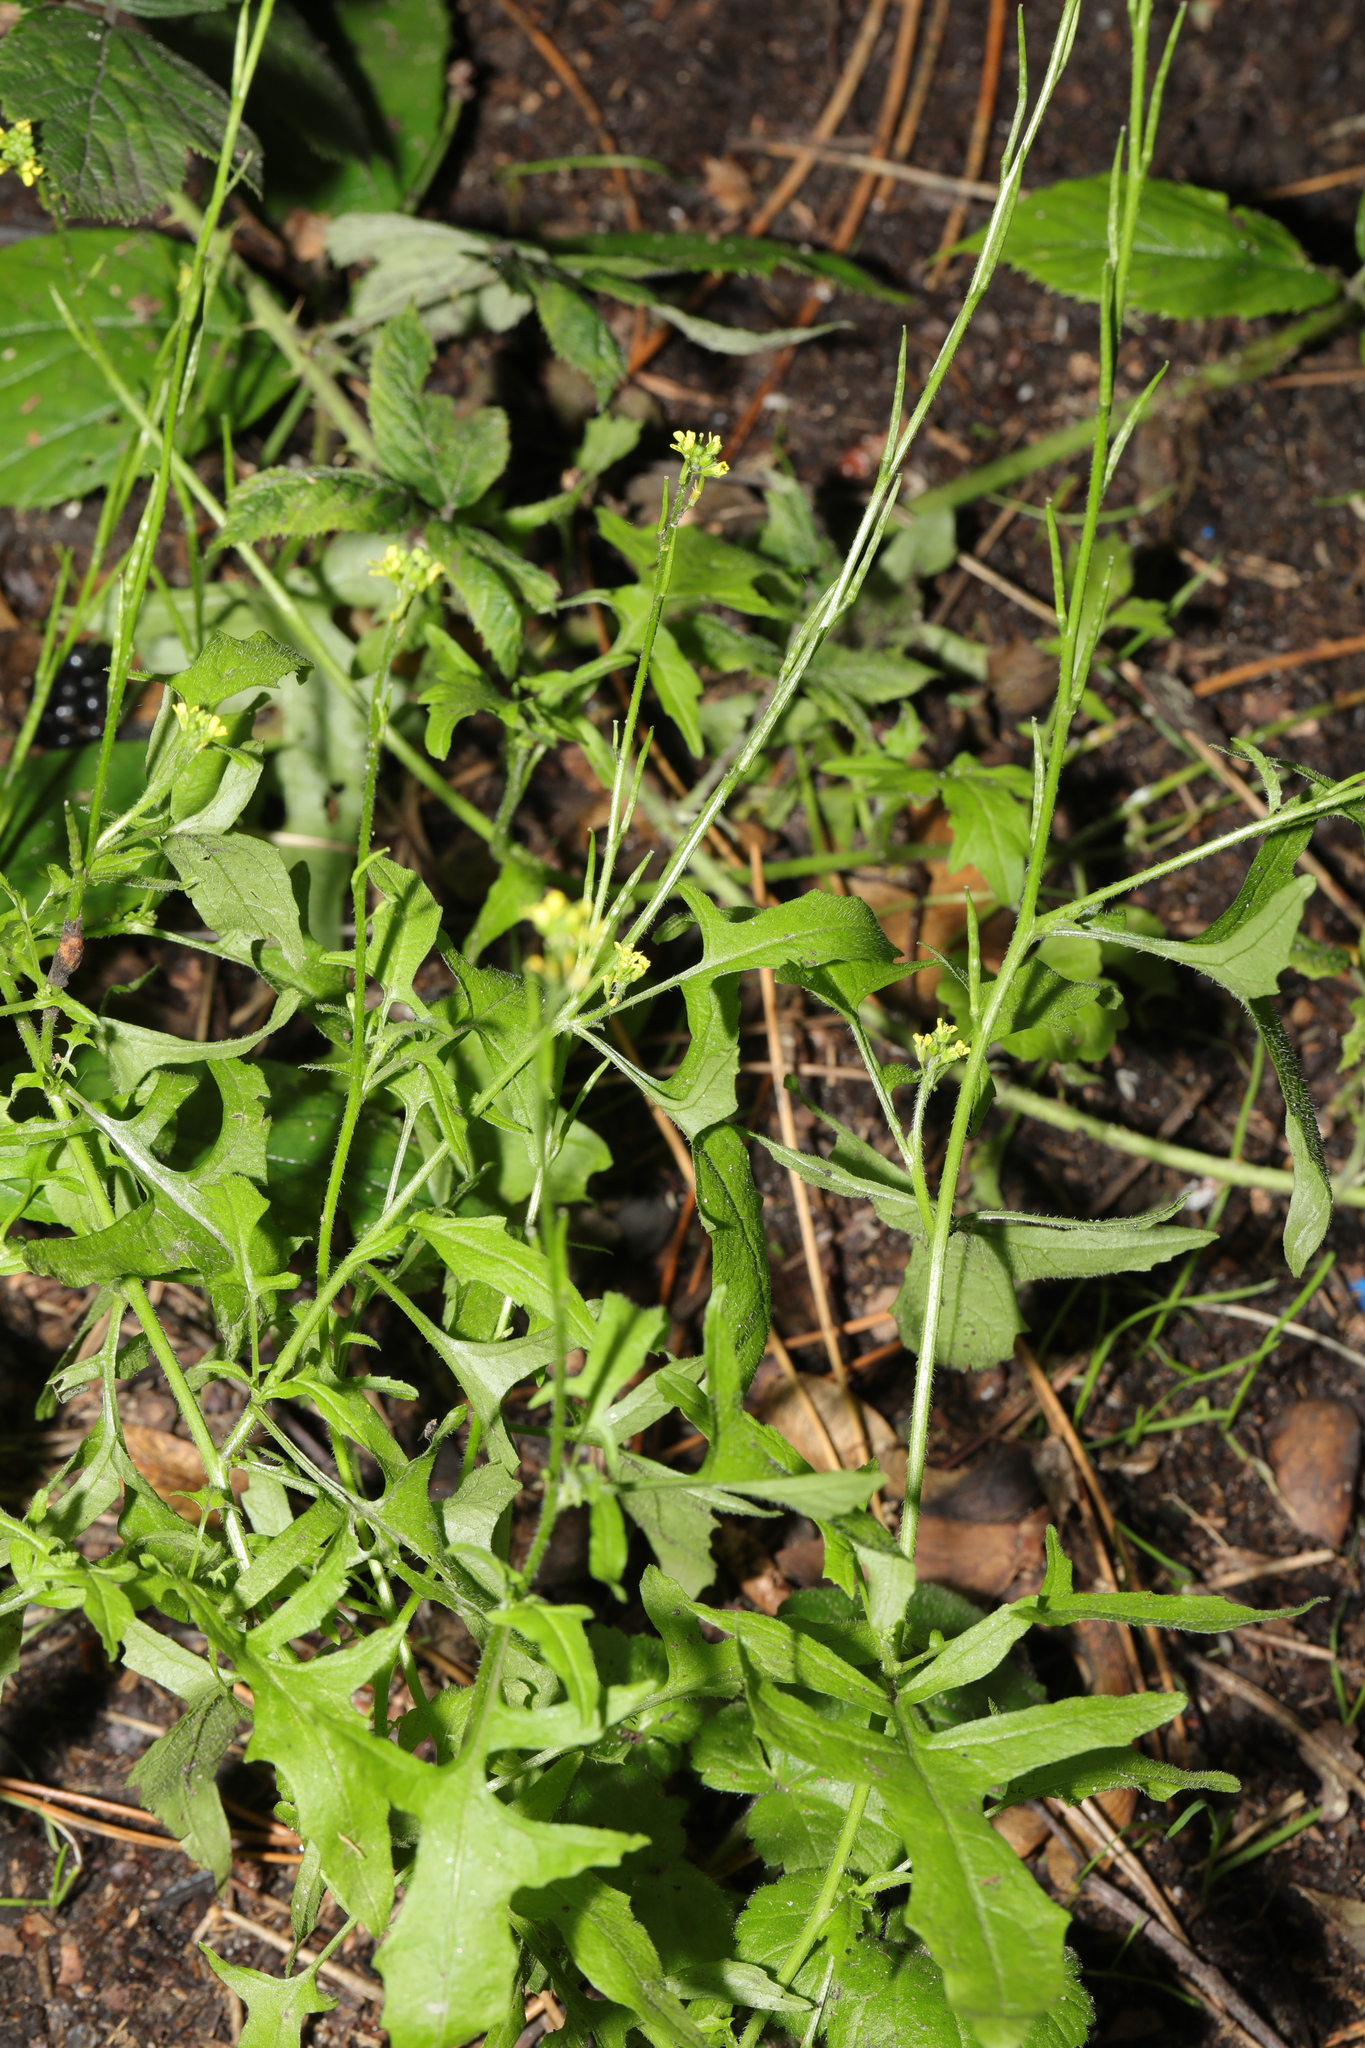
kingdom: Plantae
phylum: Tracheophyta
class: Magnoliopsida
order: Brassicales
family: Brassicaceae
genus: Sisymbrium
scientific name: Sisymbrium officinale
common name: Hedge mustard
